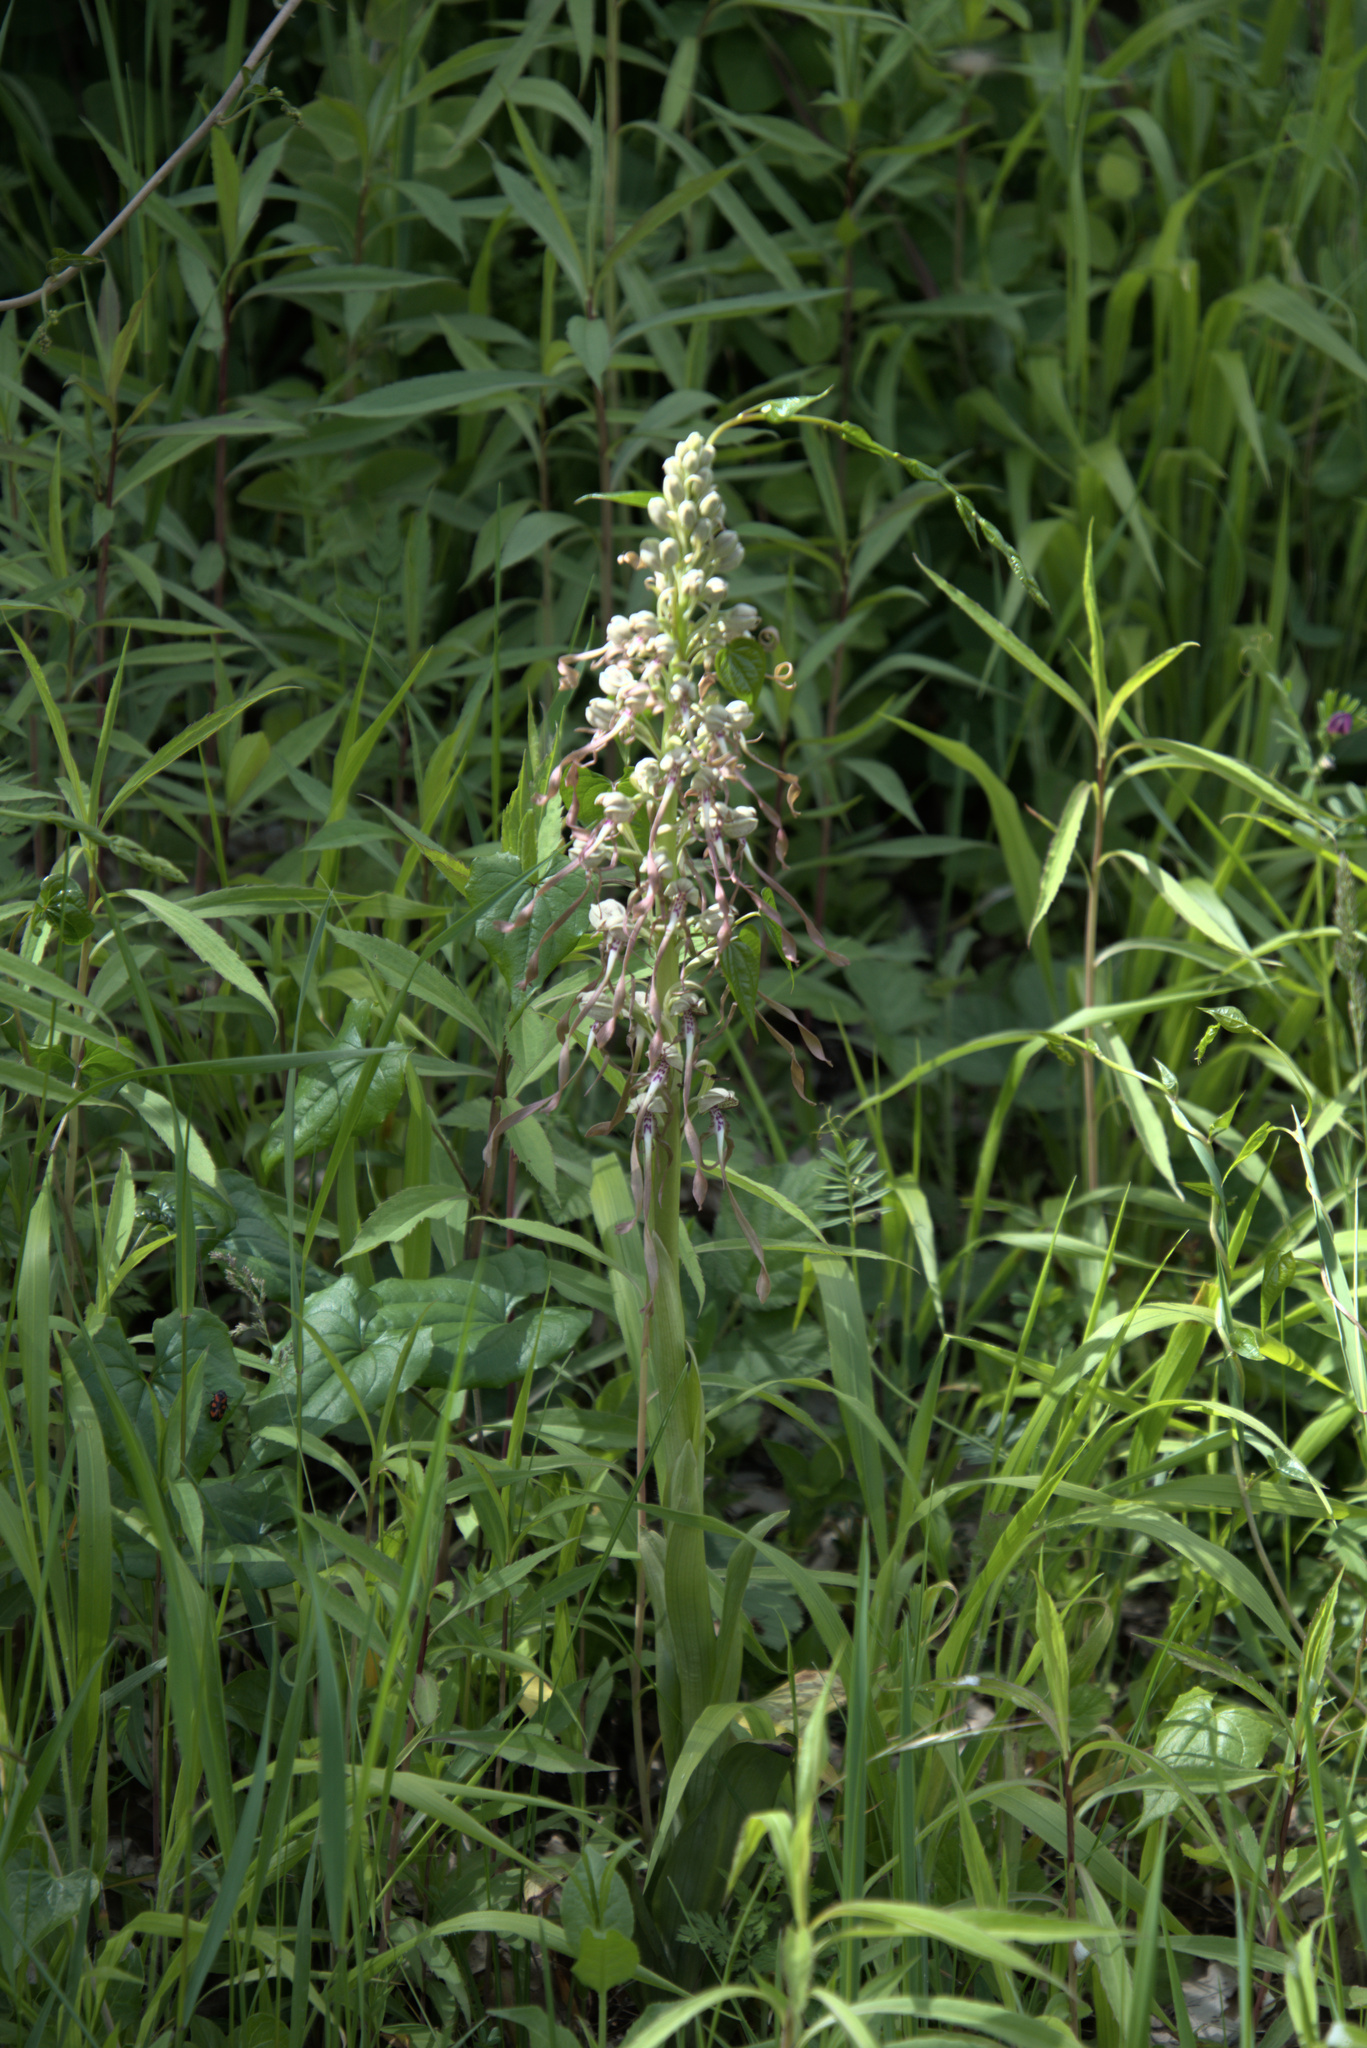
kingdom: Plantae
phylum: Tracheophyta
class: Liliopsida
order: Asparagales
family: Orchidaceae
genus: Himantoglossum
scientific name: Himantoglossum hircinum
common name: Lizard orchid
